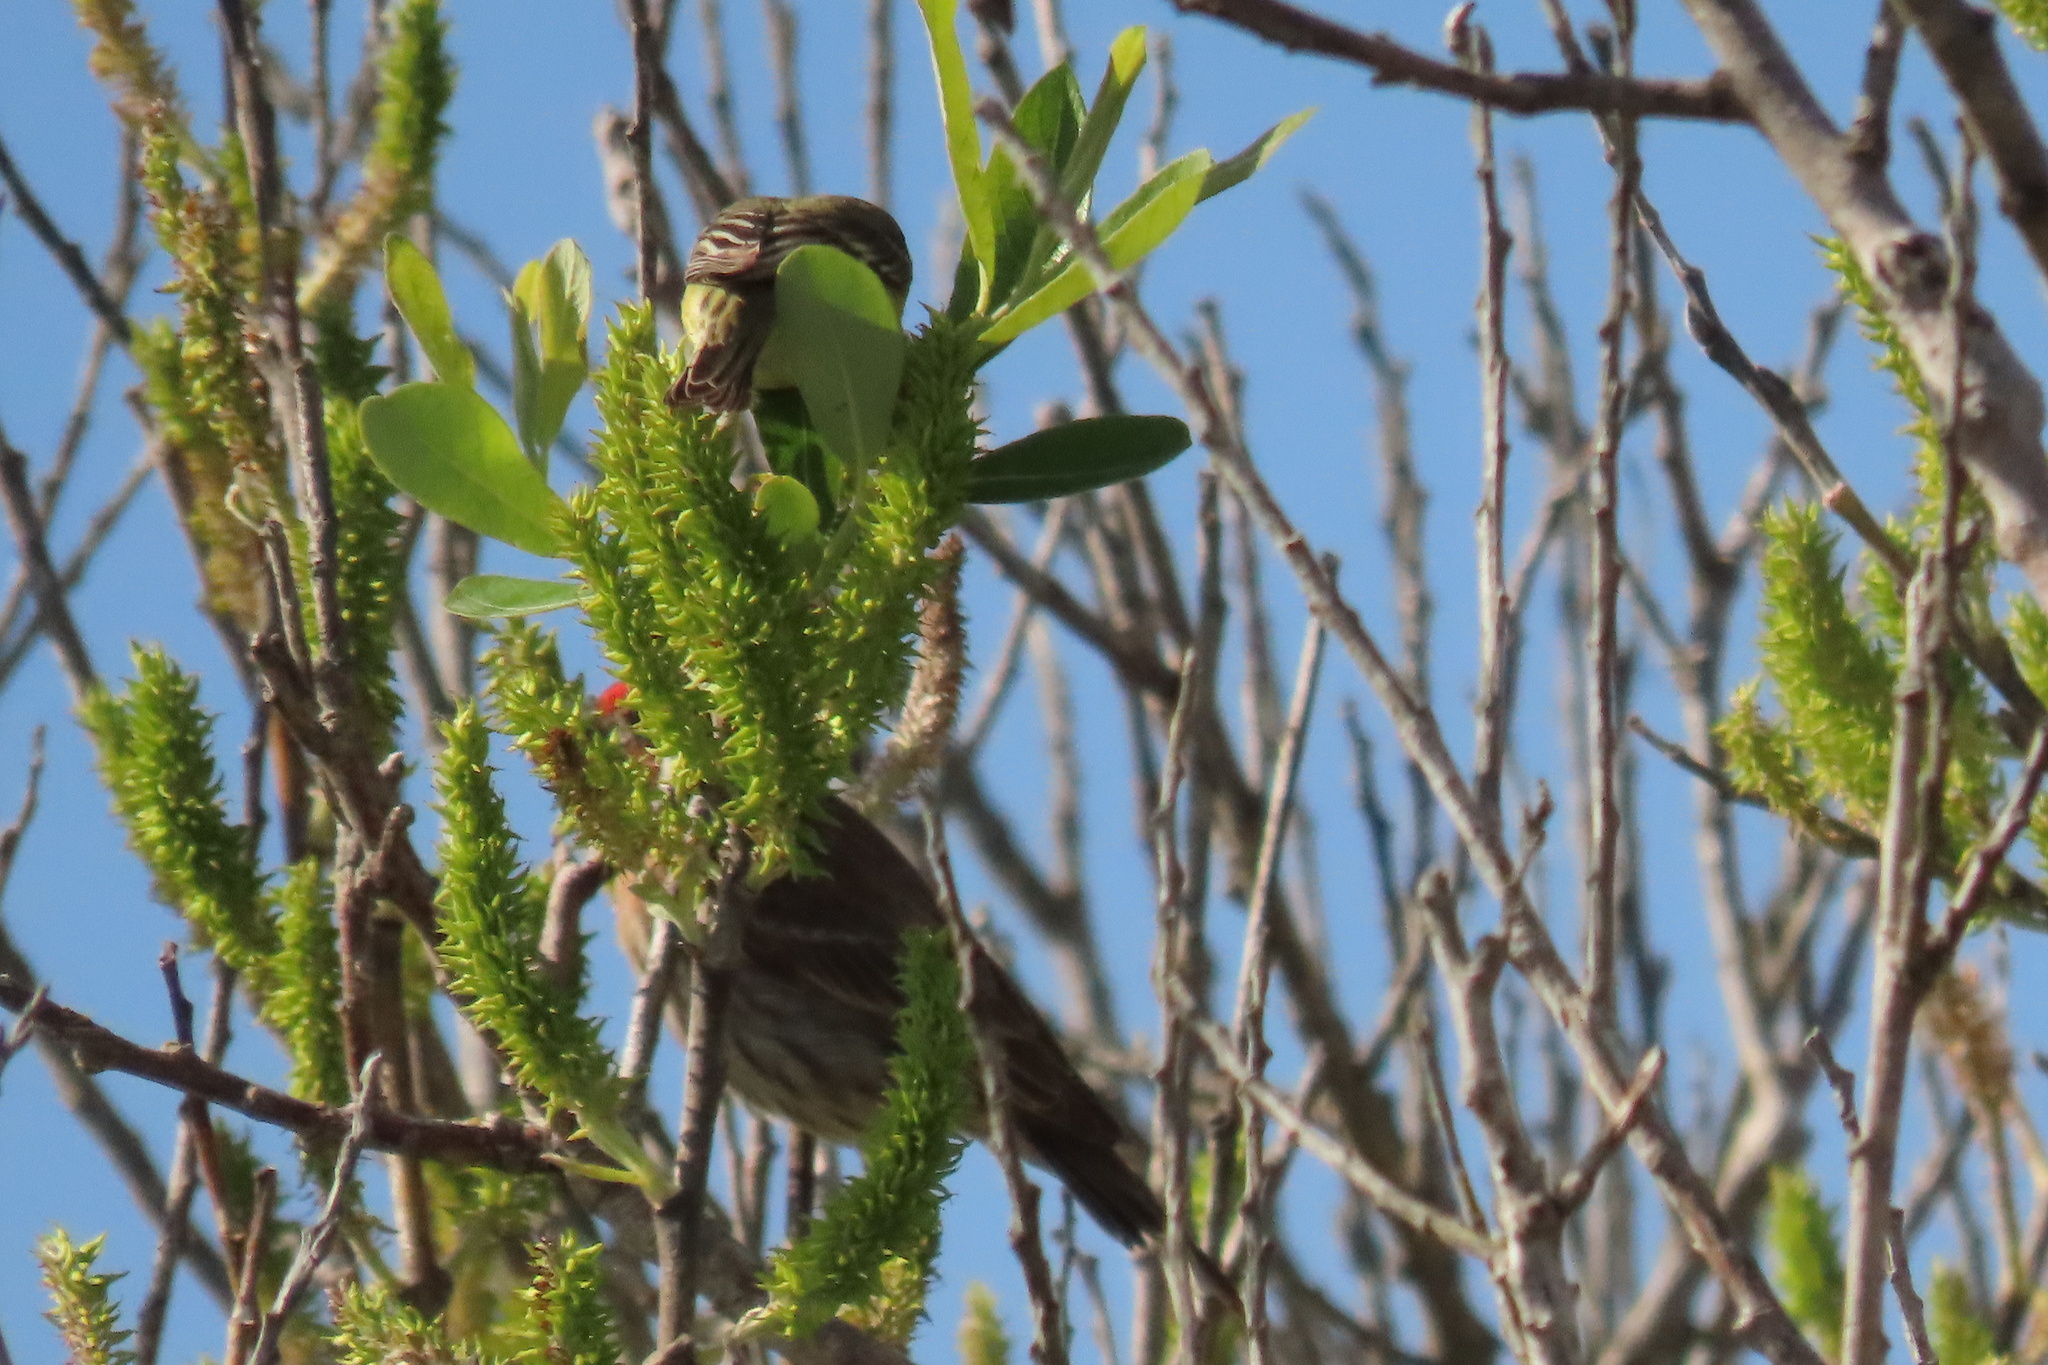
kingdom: Animalia
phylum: Chordata
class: Aves
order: Passeriformes
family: Fringillidae
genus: Spinus
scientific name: Spinus psaltria
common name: Lesser goldfinch
